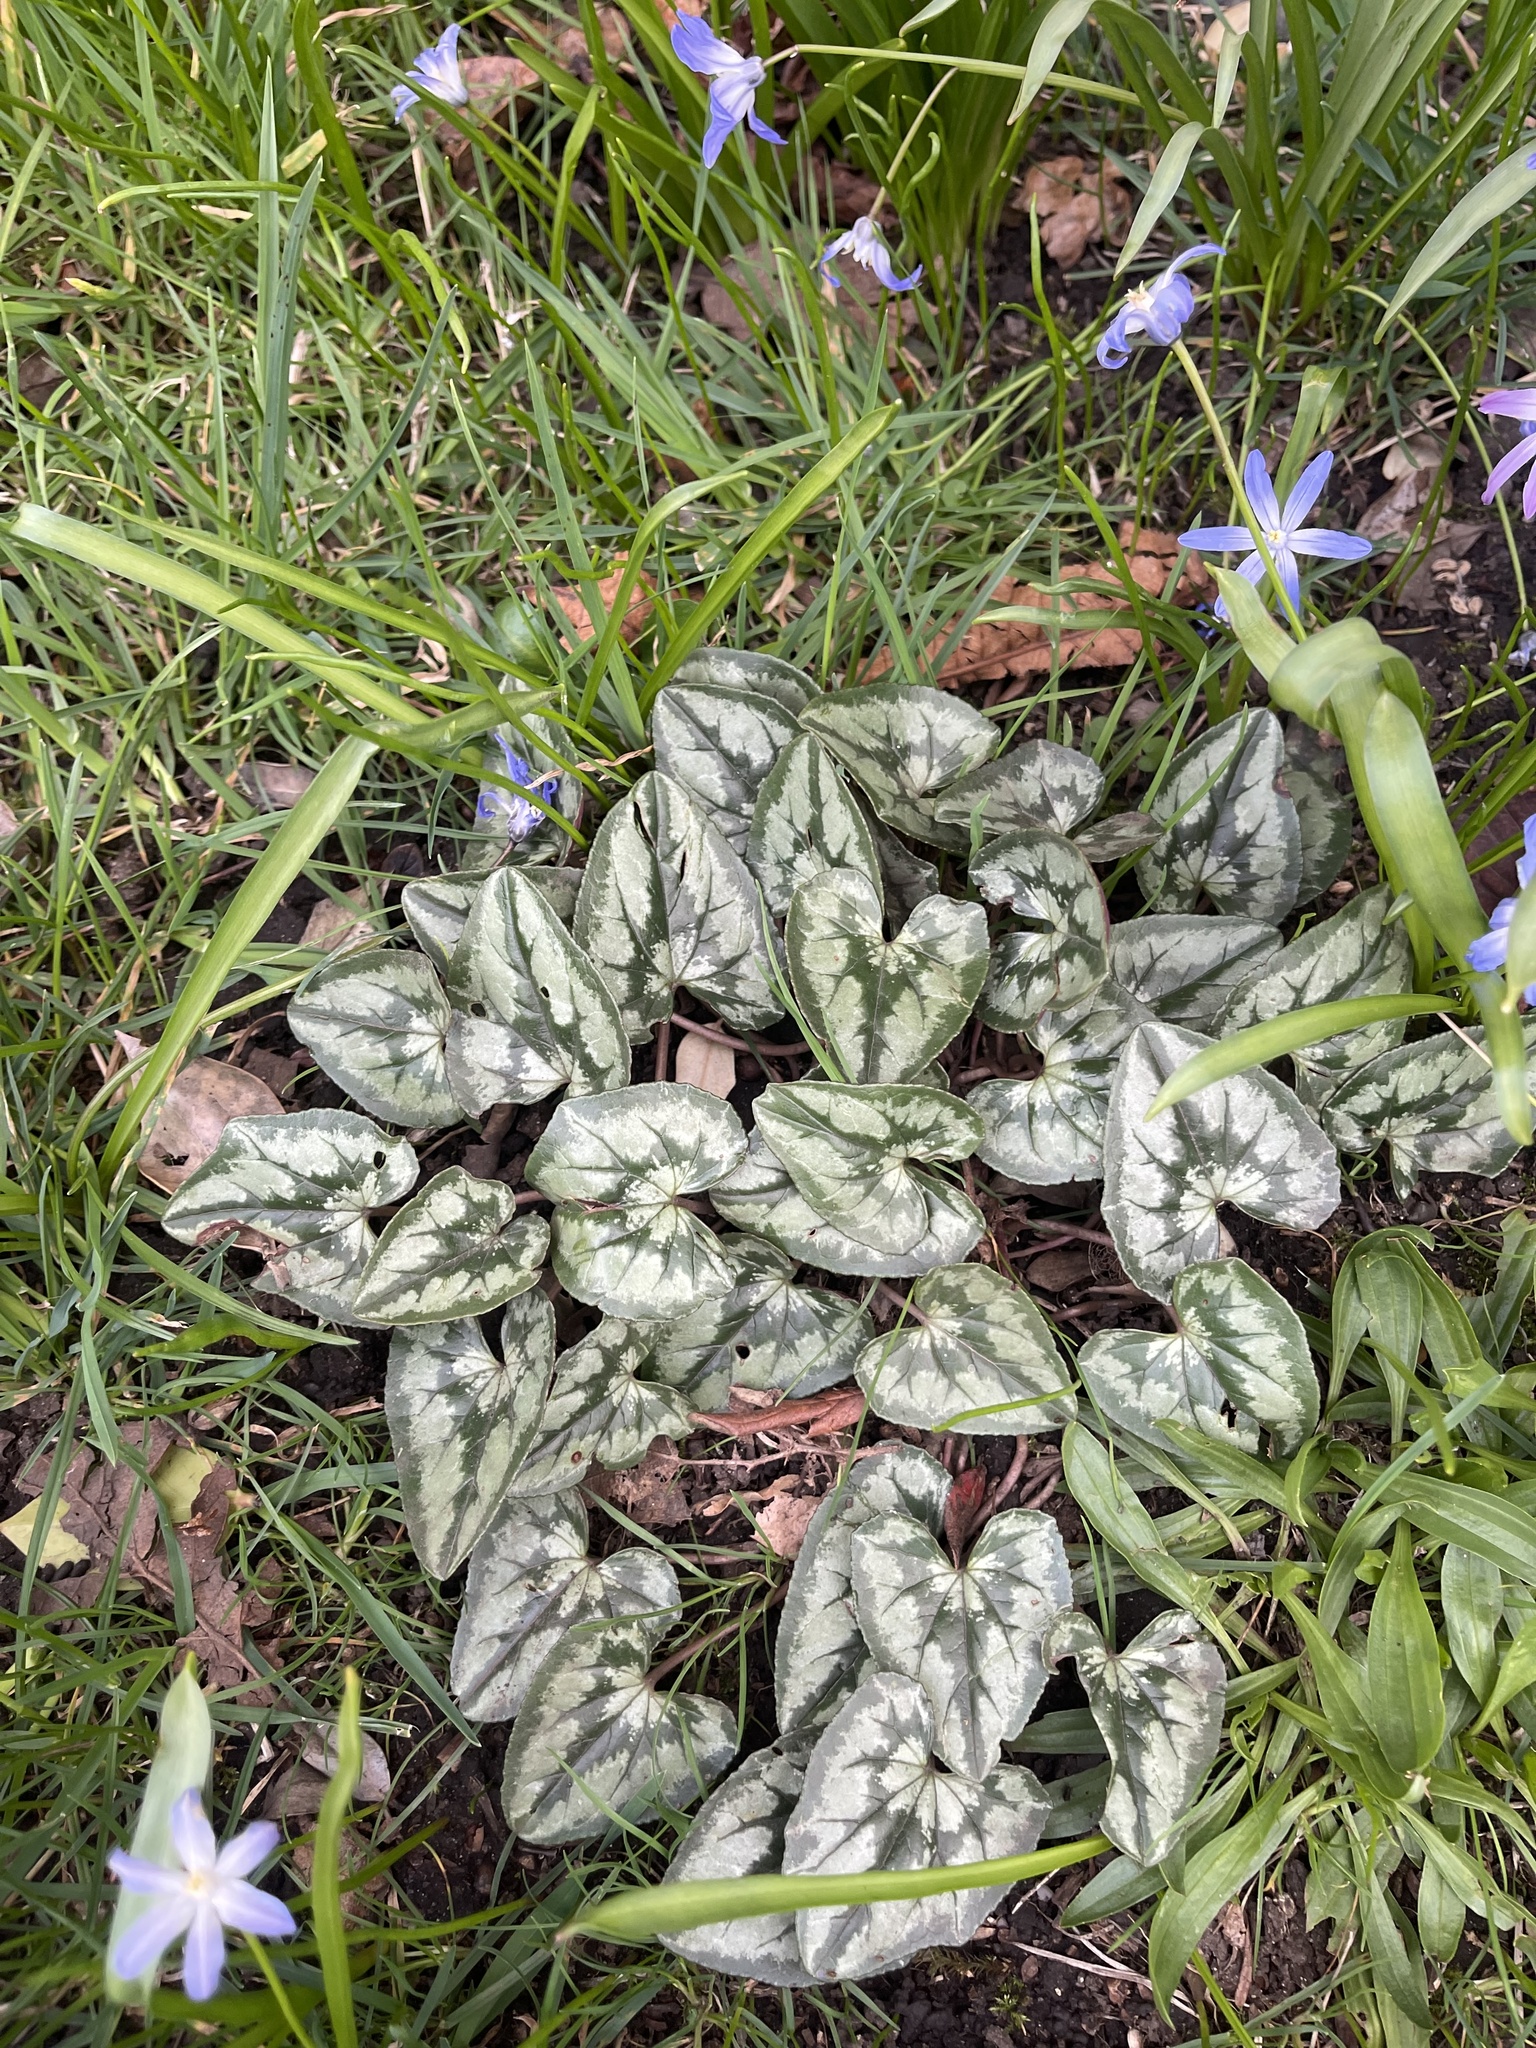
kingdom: Plantae
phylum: Tracheophyta
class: Magnoliopsida
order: Ericales
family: Primulaceae
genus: Cyclamen
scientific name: Cyclamen hederifolium
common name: Sowbread
